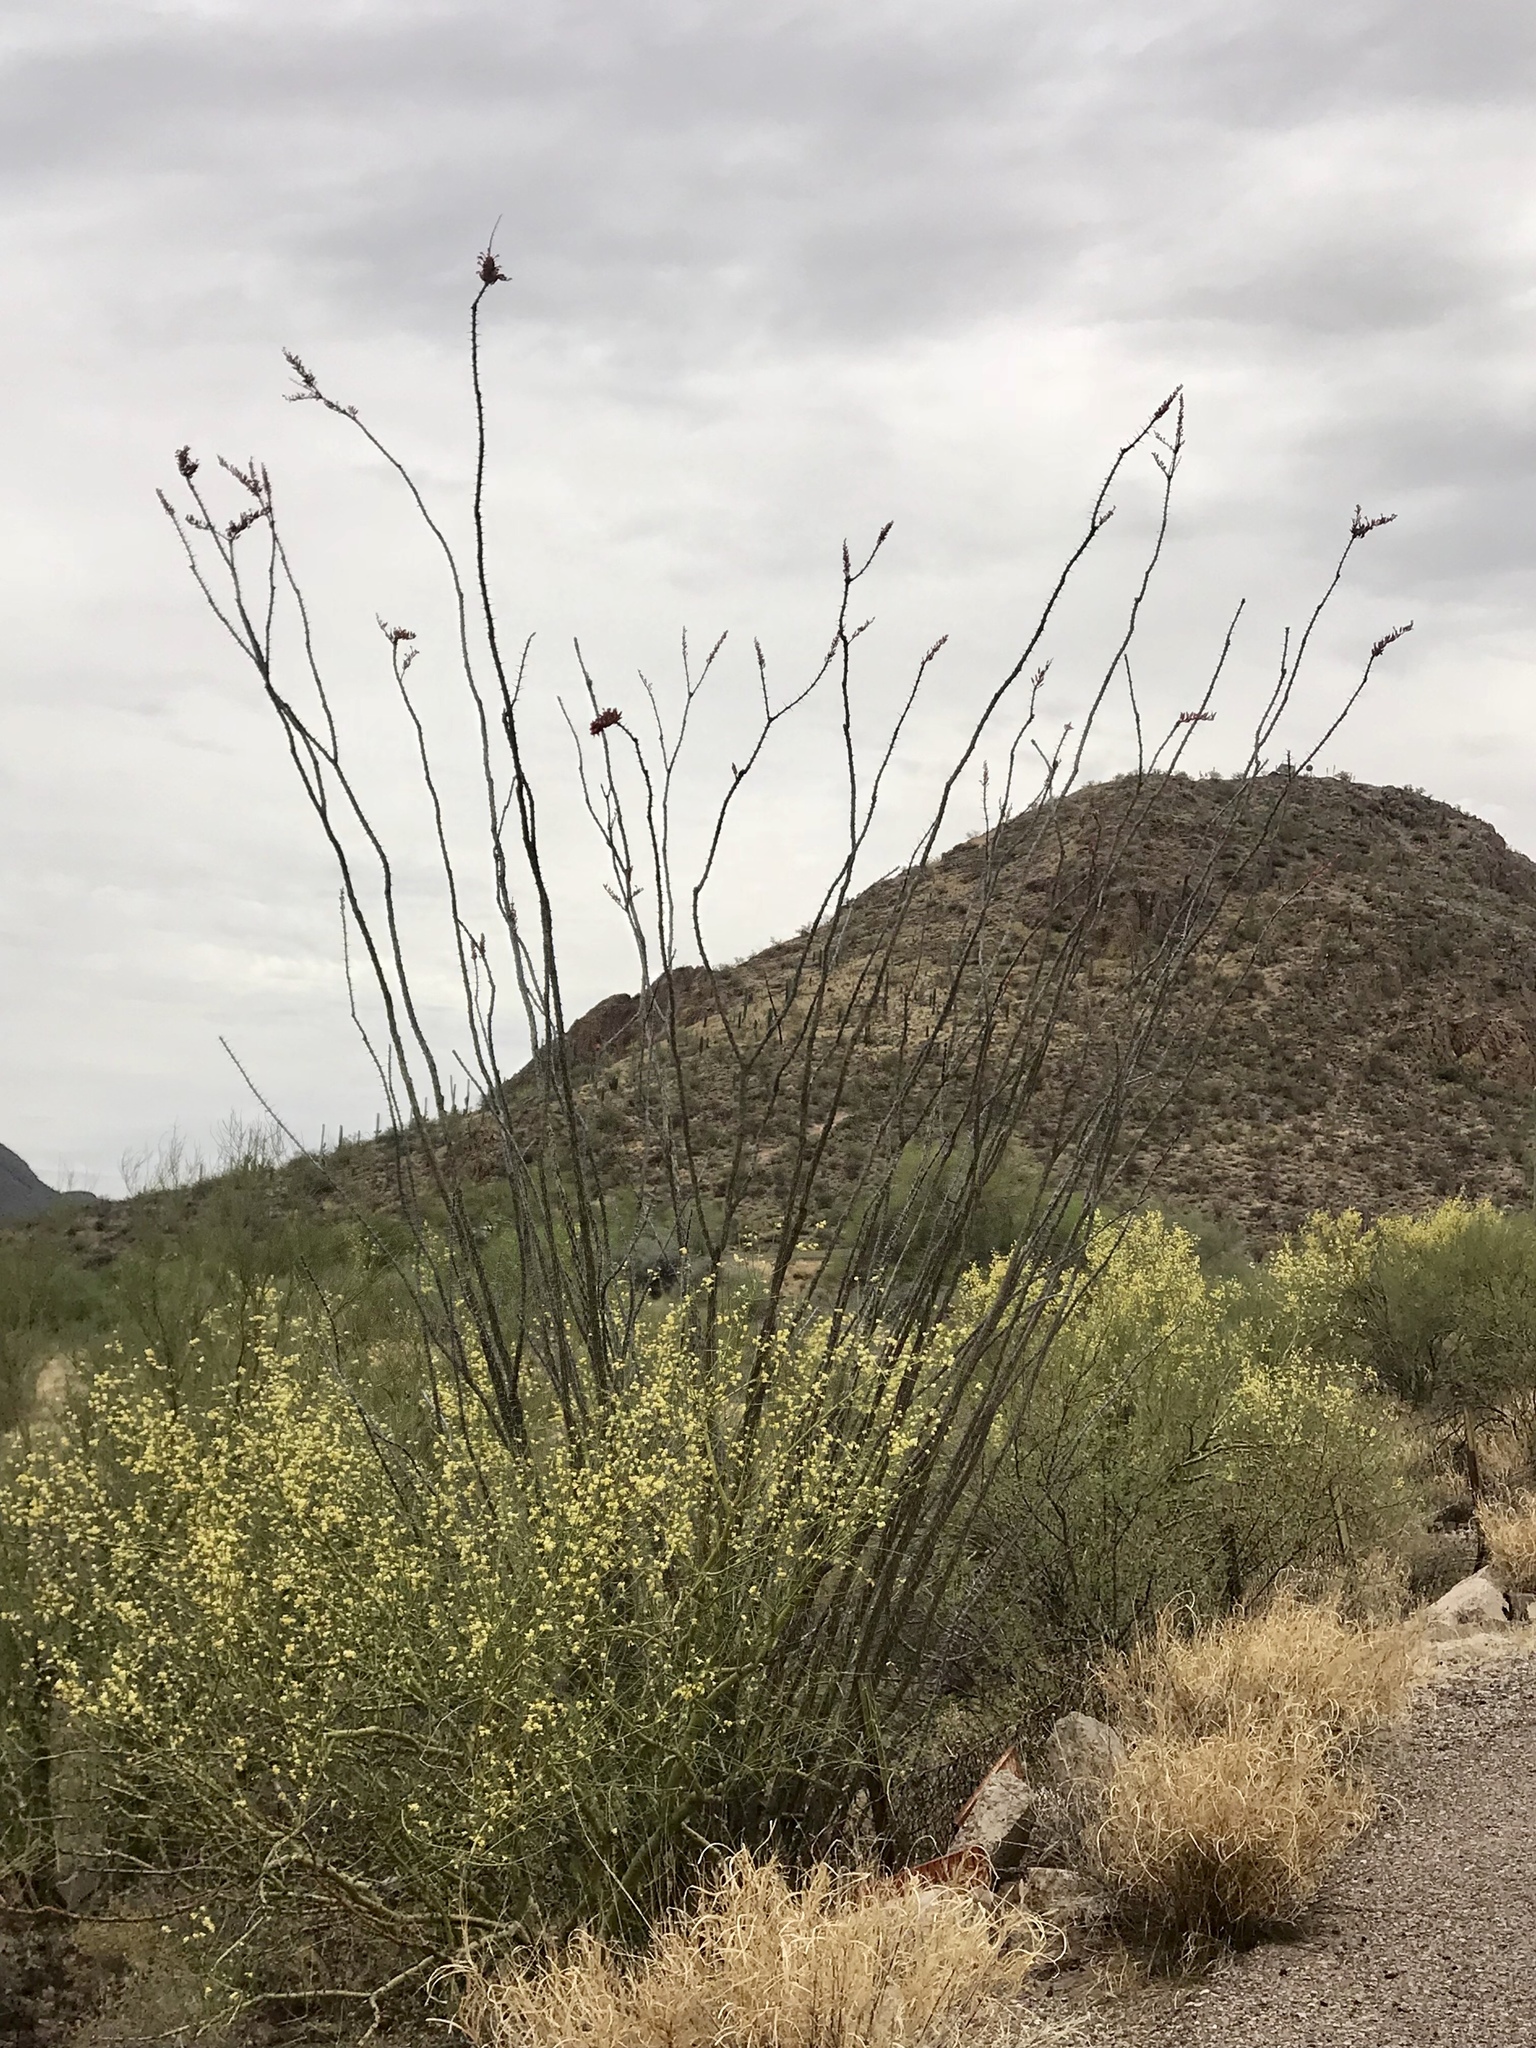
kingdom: Plantae
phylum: Tracheophyta
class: Magnoliopsida
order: Ericales
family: Fouquieriaceae
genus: Fouquieria
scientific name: Fouquieria splendens
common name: Vine-cactus
